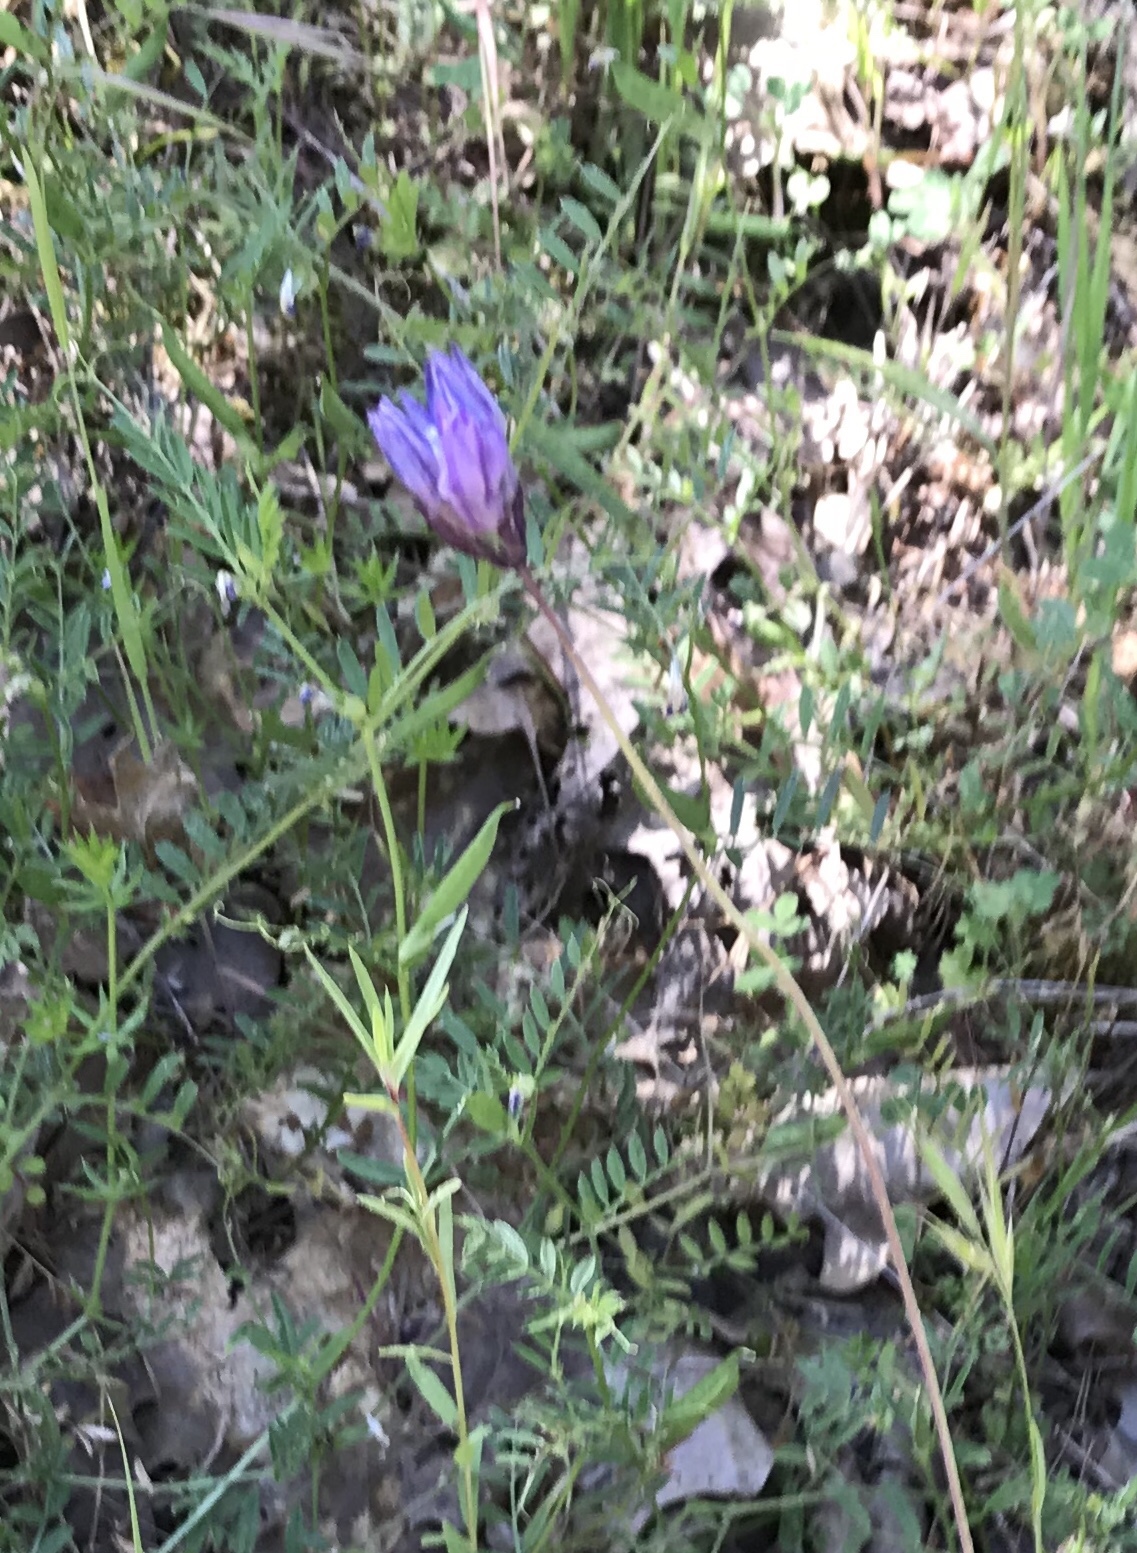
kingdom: Plantae
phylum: Tracheophyta
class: Liliopsida
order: Asparagales
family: Asparagaceae
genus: Dipterostemon
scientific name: Dipterostemon capitatus
